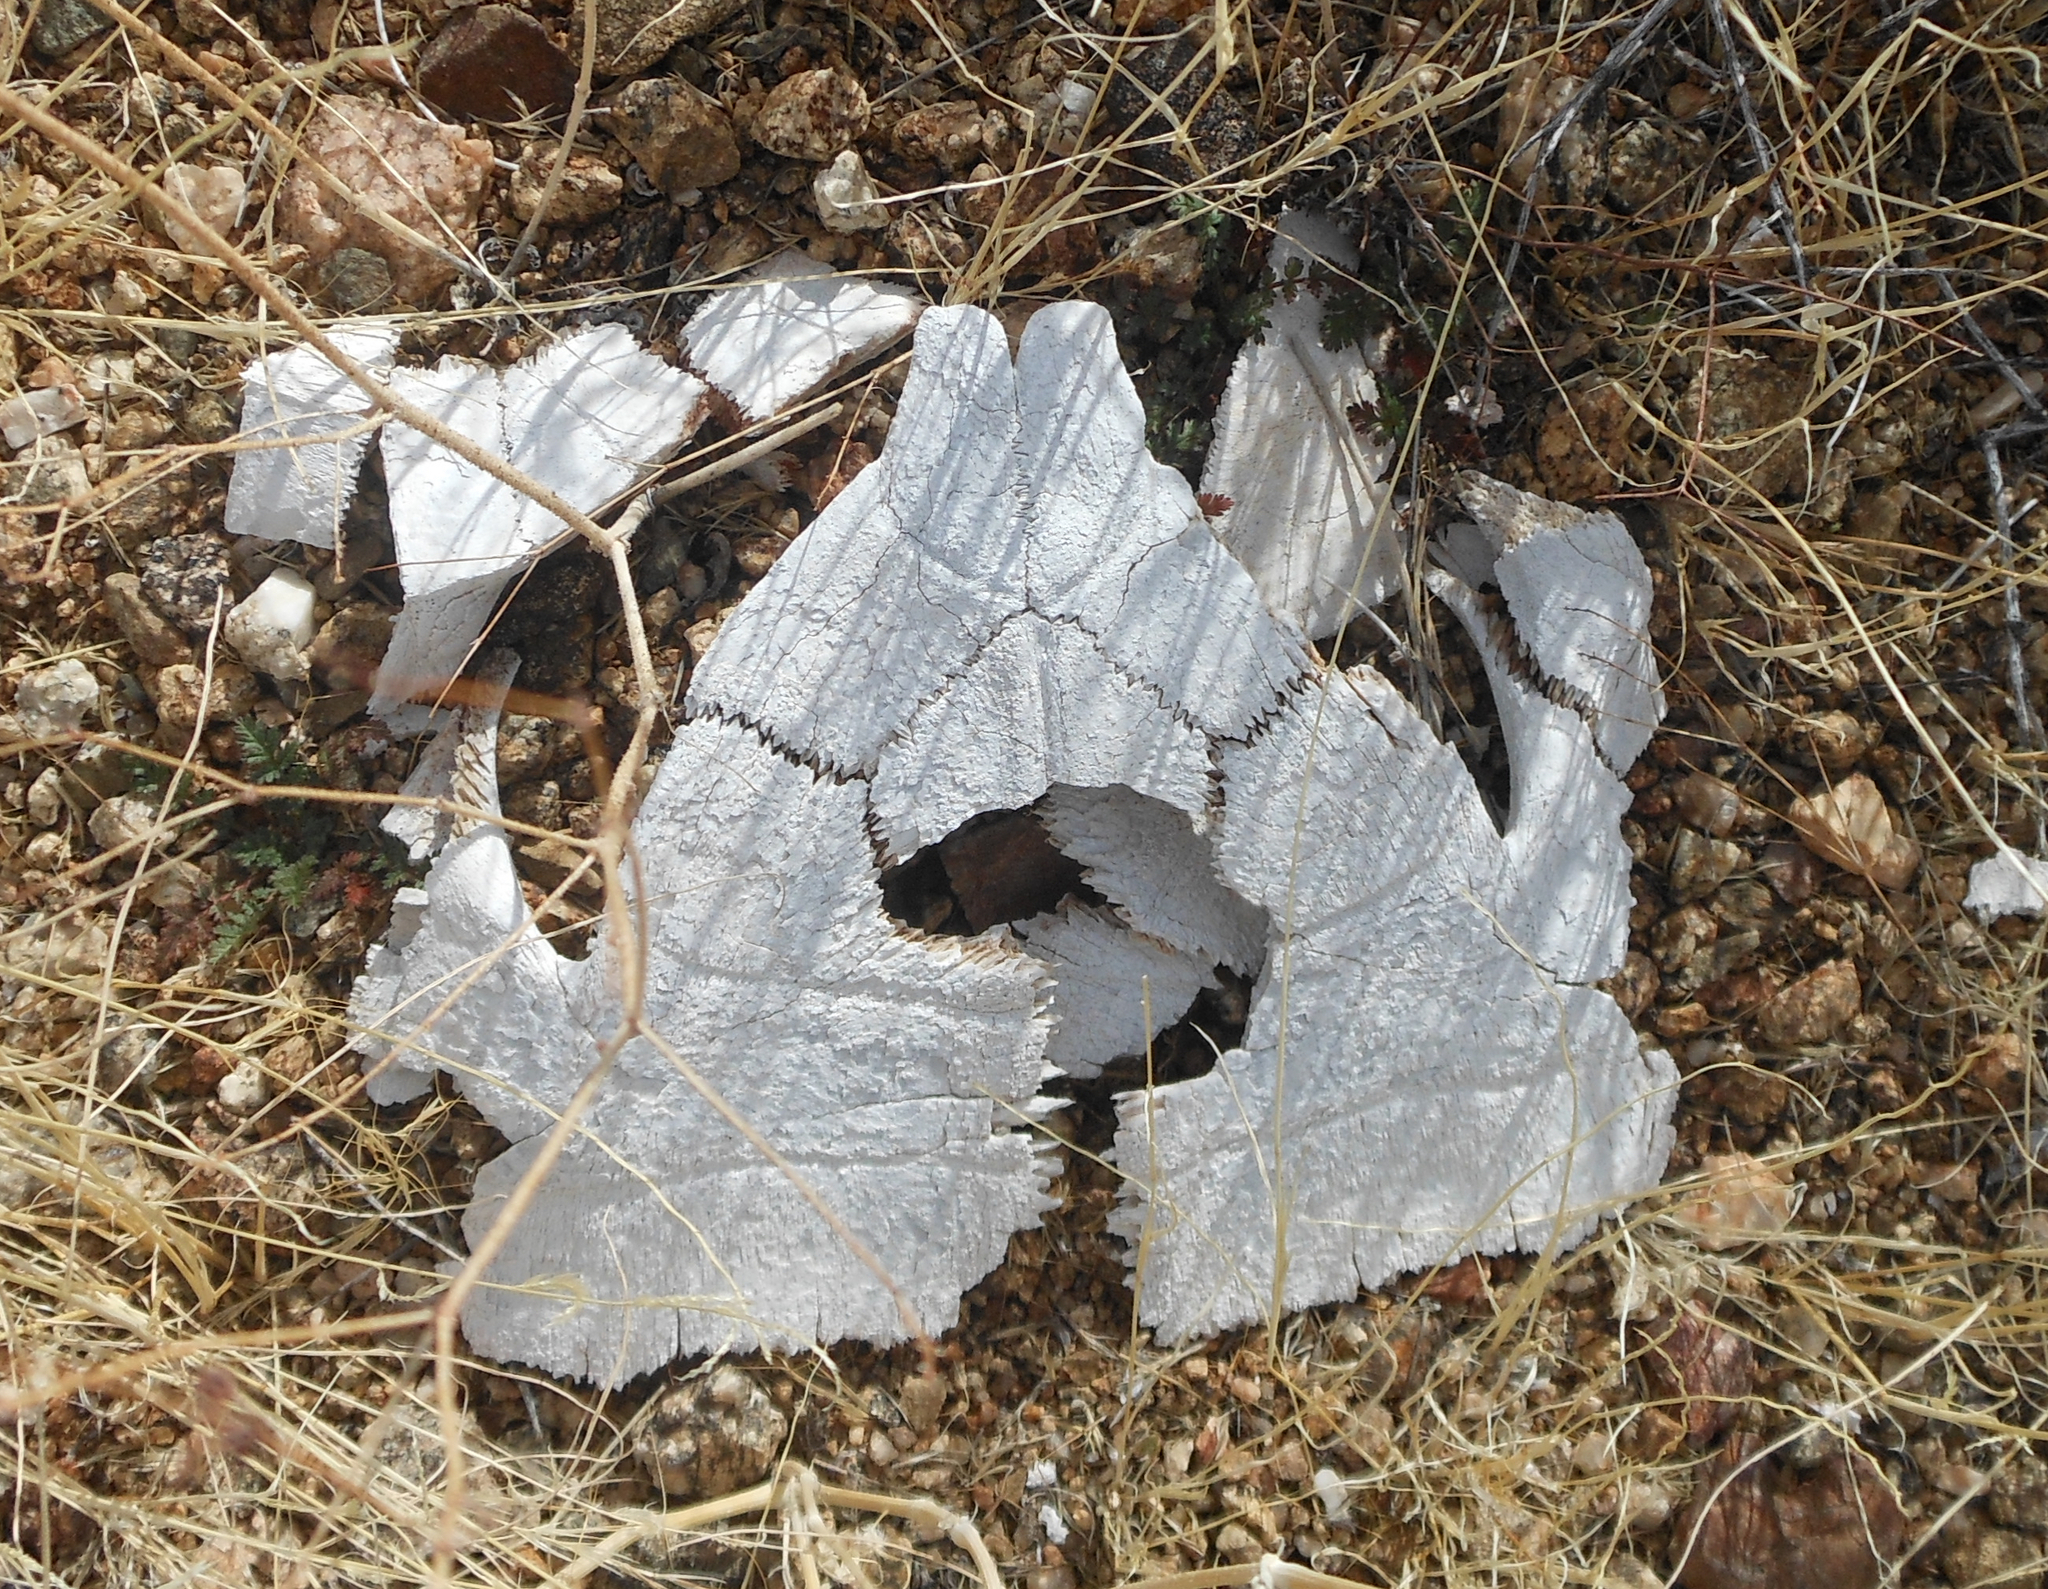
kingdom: Animalia
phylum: Chordata
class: Testudines
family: Testudinidae
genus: Gopherus
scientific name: Gopherus agassizii
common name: Mojave desert tortoise
